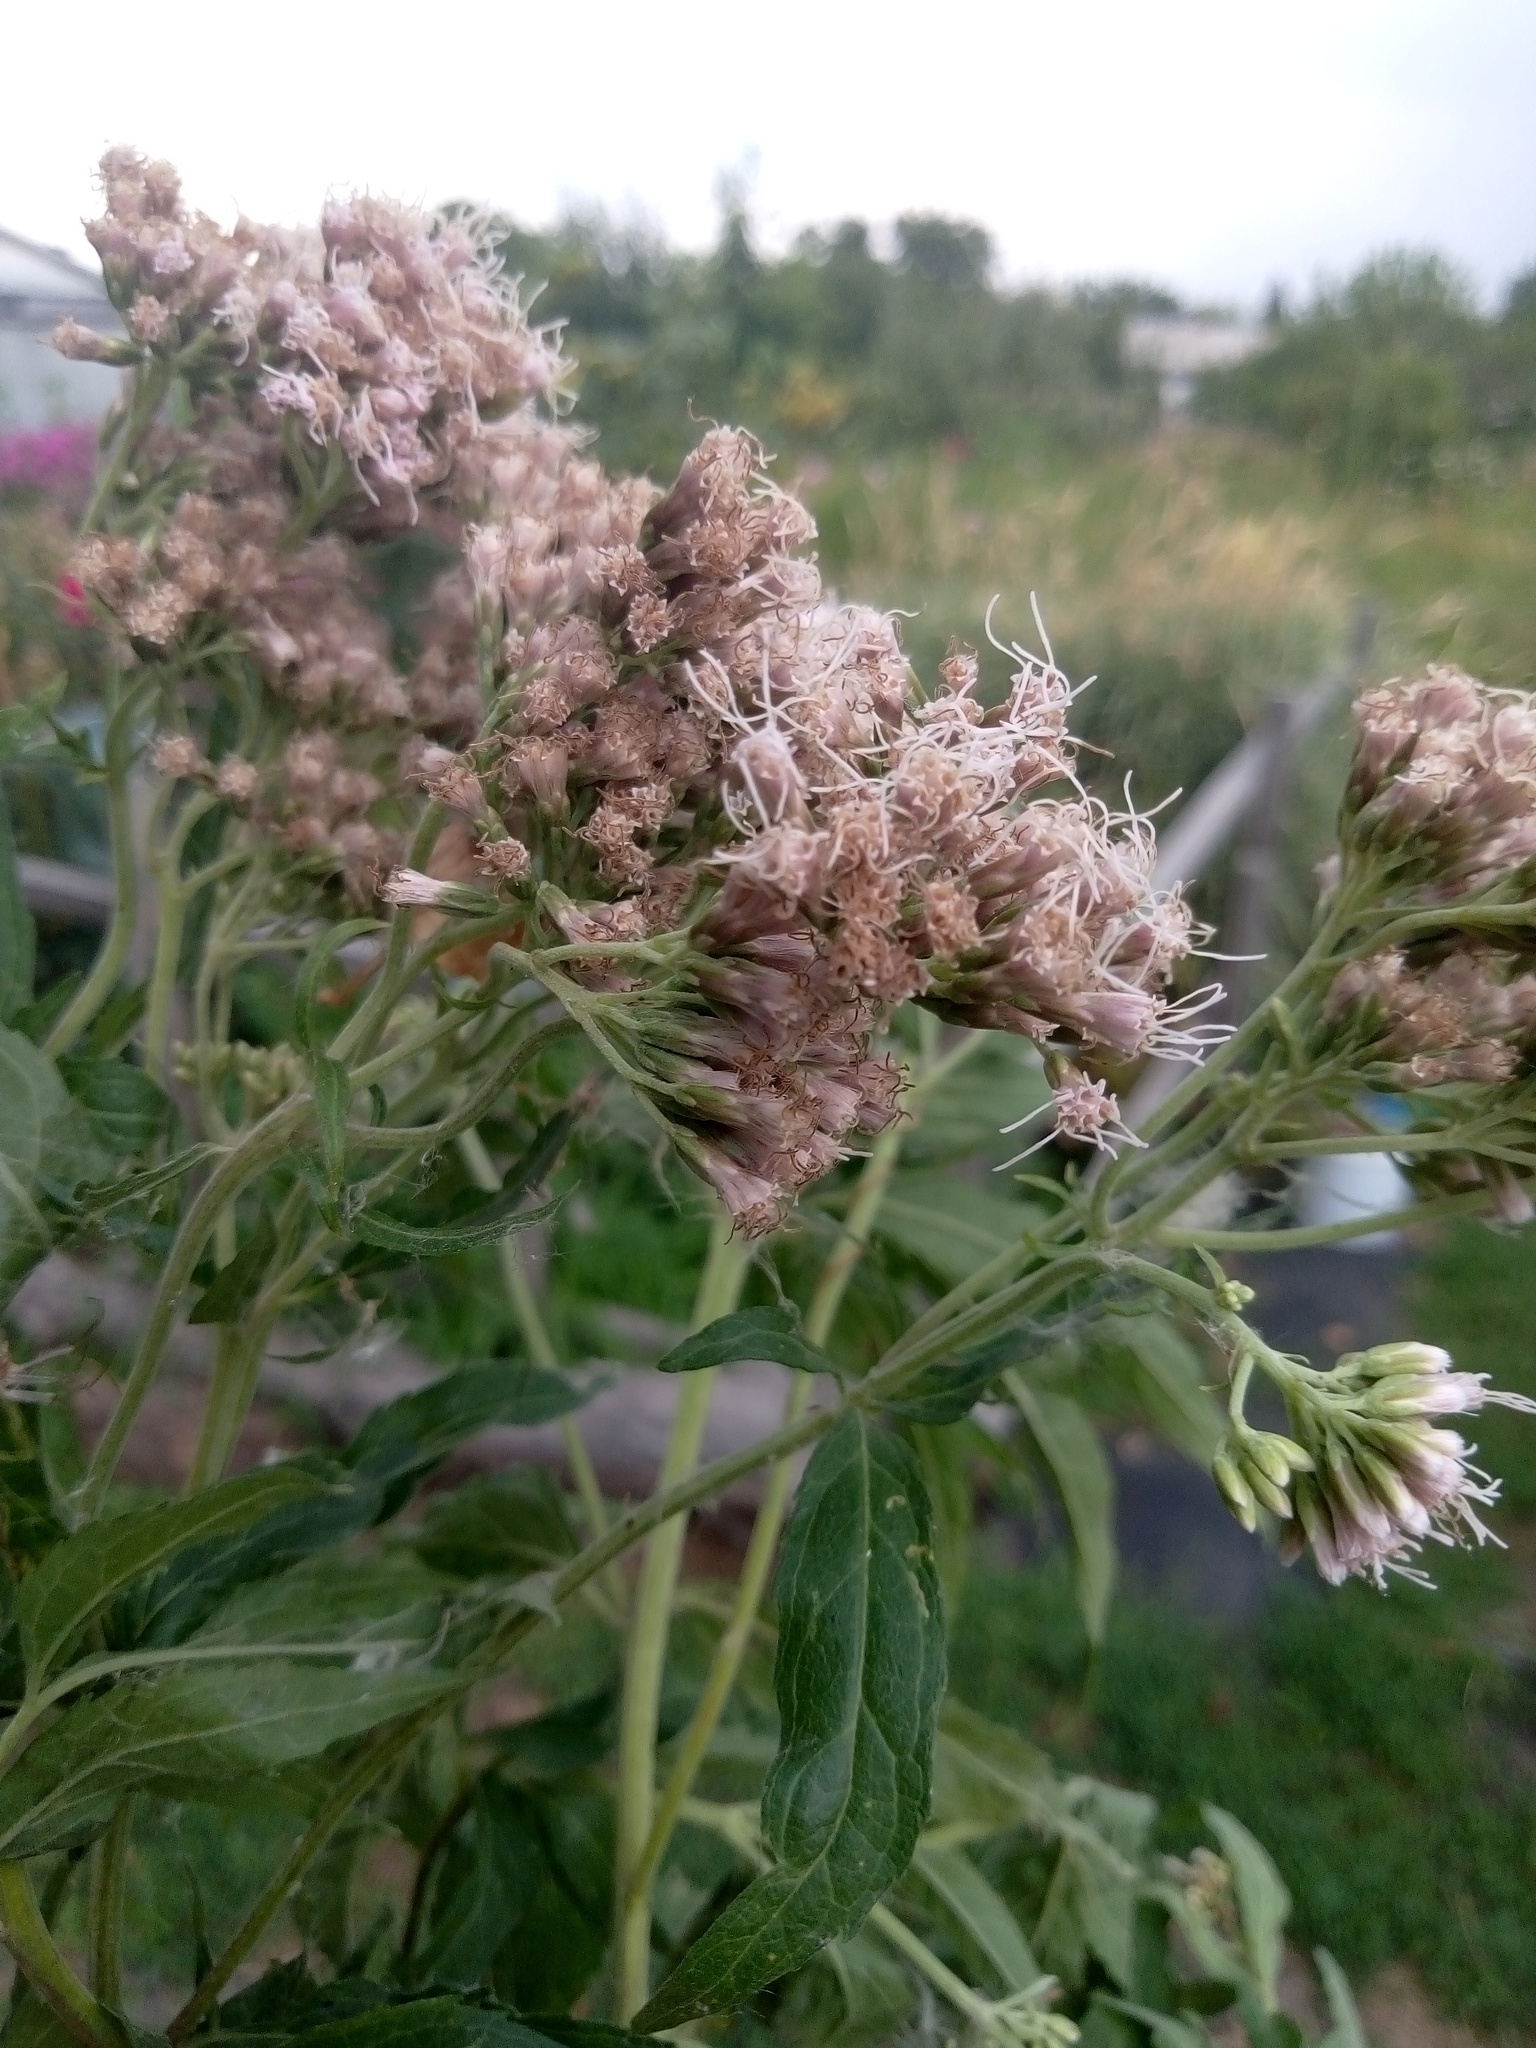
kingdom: Plantae
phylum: Tracheophyta
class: Magnoliopsida
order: Asterales
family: Asteraceae
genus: Eupatorium
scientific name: Eupatorium cannabinum
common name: Hemp-agrimony
